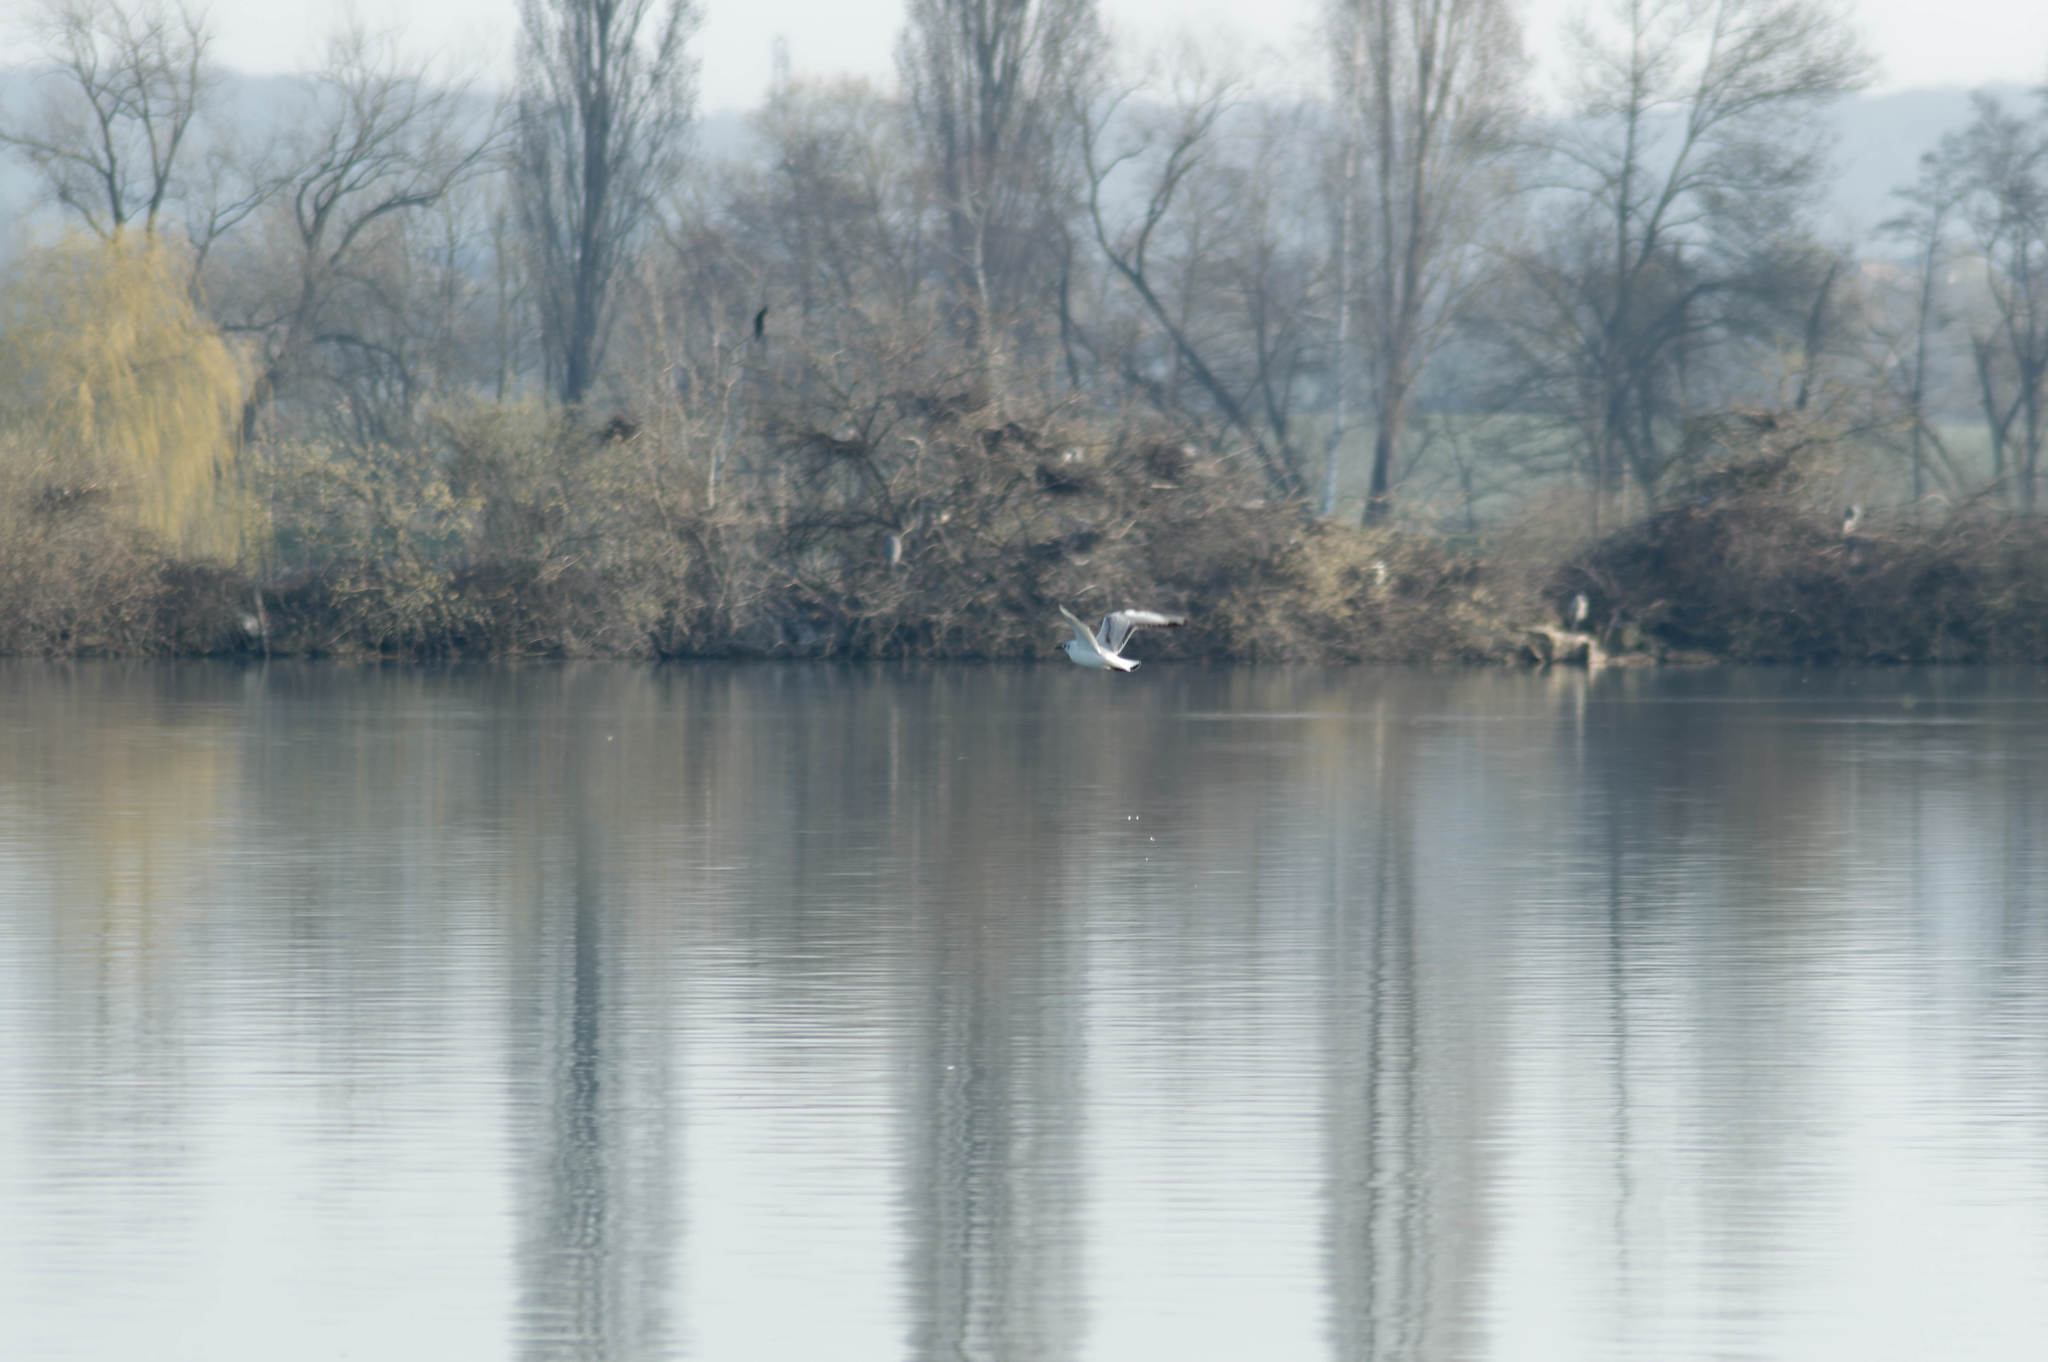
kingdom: Animalia
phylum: Chordata
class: Aves
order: Charadriiformes
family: Laridae
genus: Chroicocephalus
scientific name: Chroicocephalus ridibundus
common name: Black-headed gull
